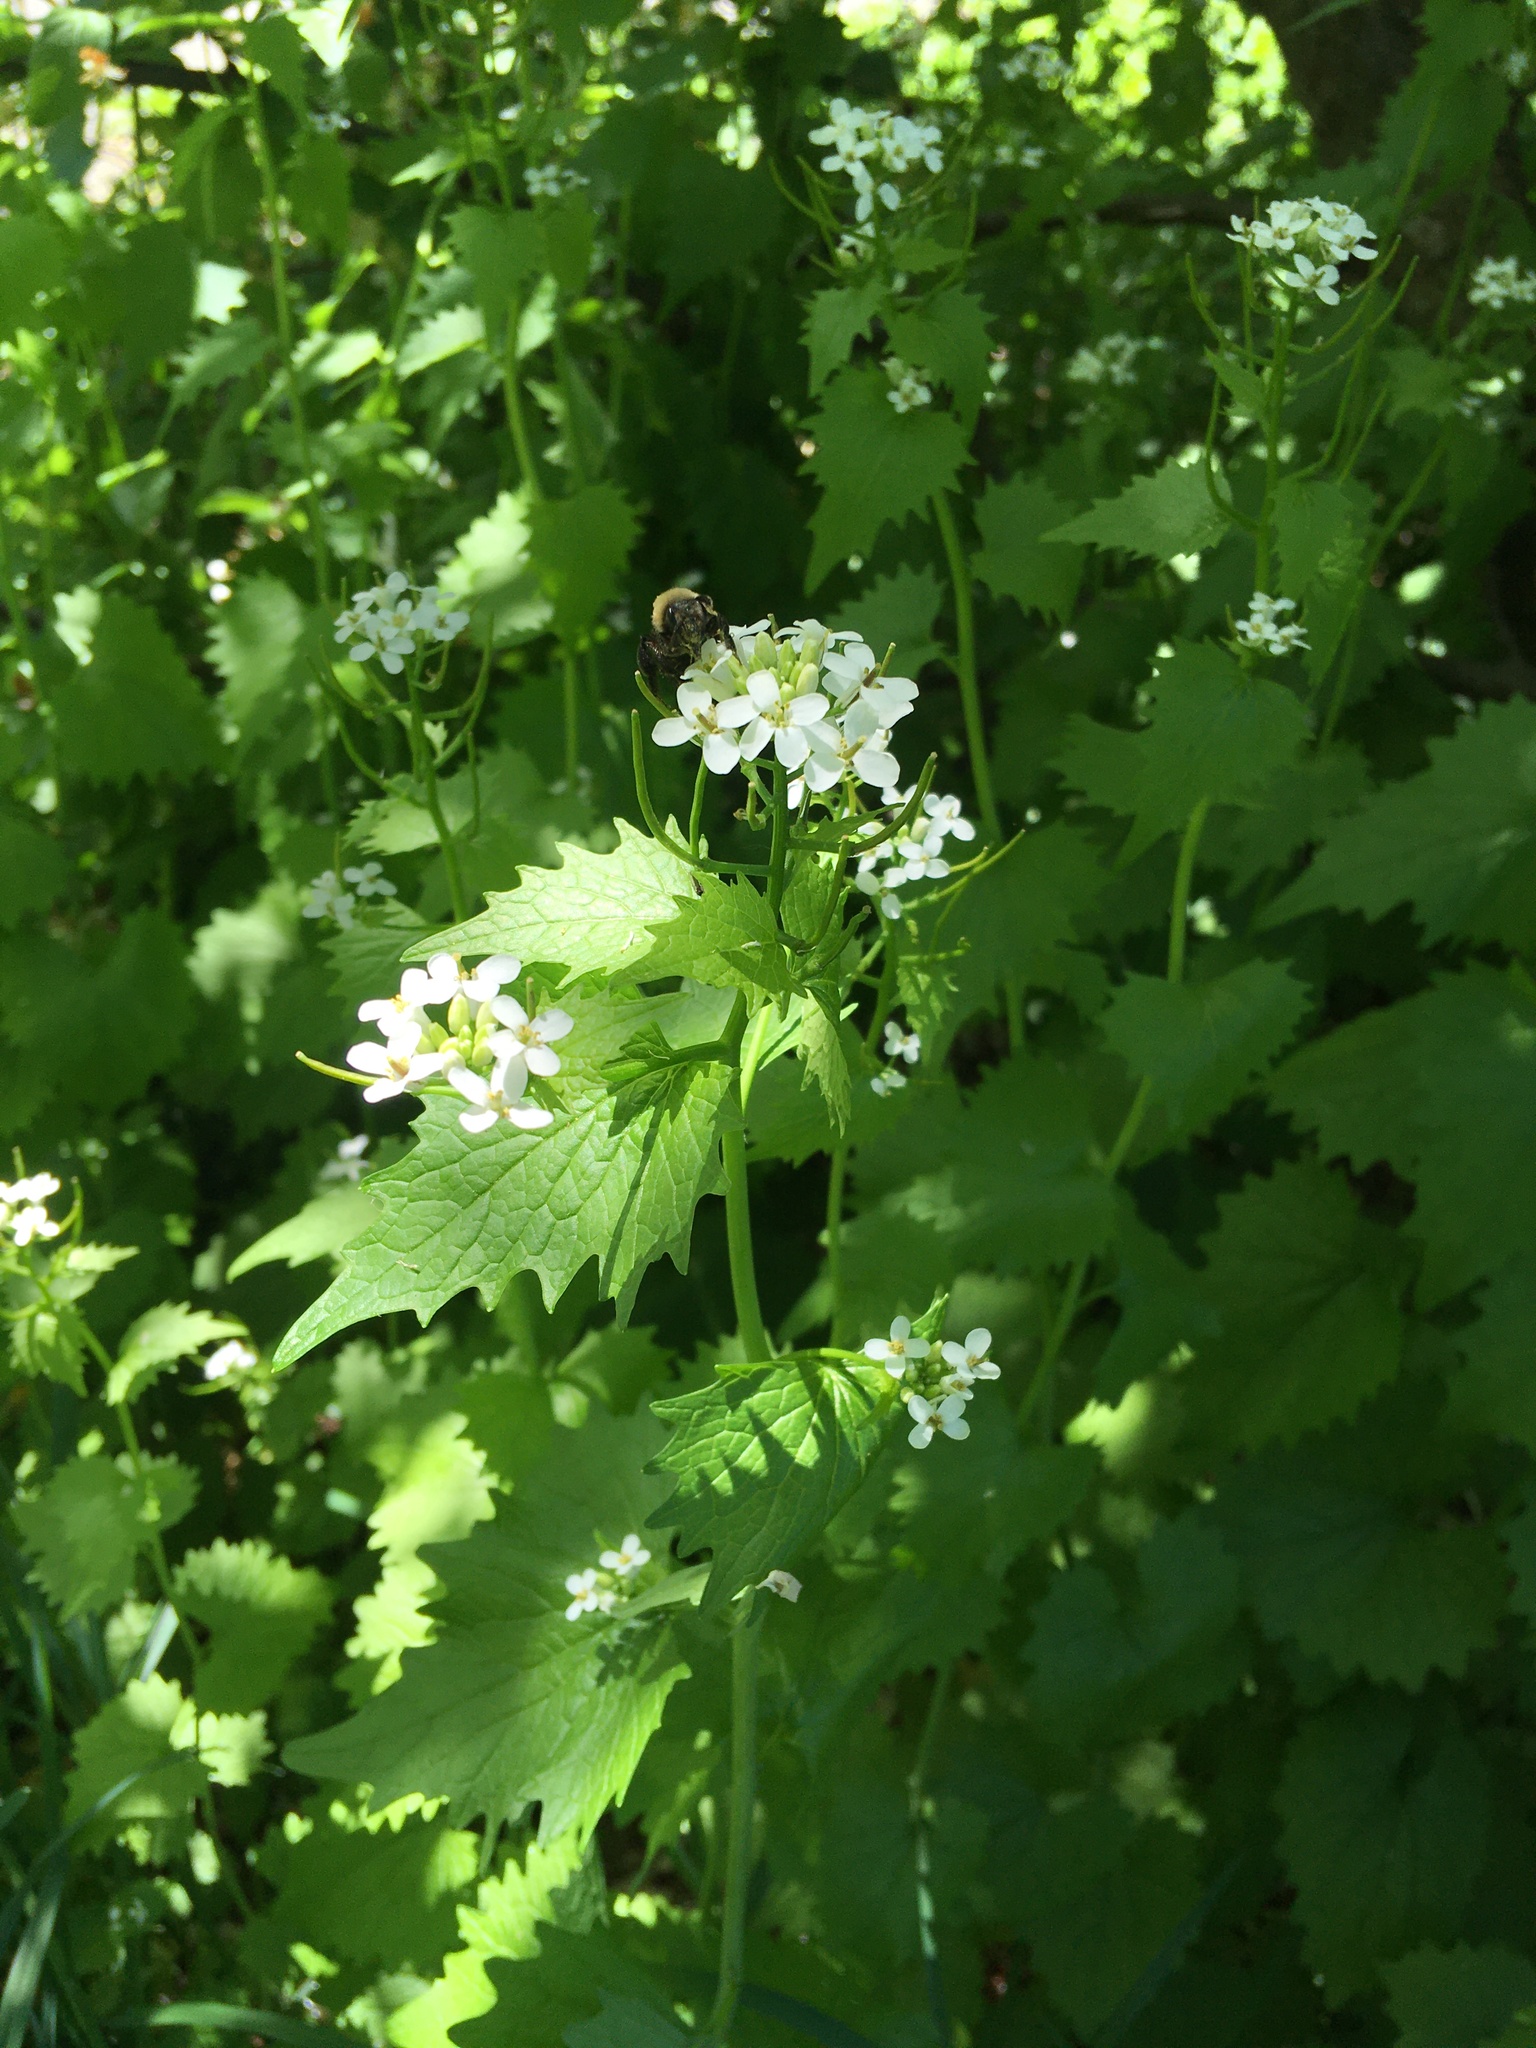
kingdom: Plantae
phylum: Tracheophyta
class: Magnoliopsida
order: Brassicales
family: Brassicaceae
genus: Alliaria
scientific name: Alliaria petiolata
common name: Garlic mustard
